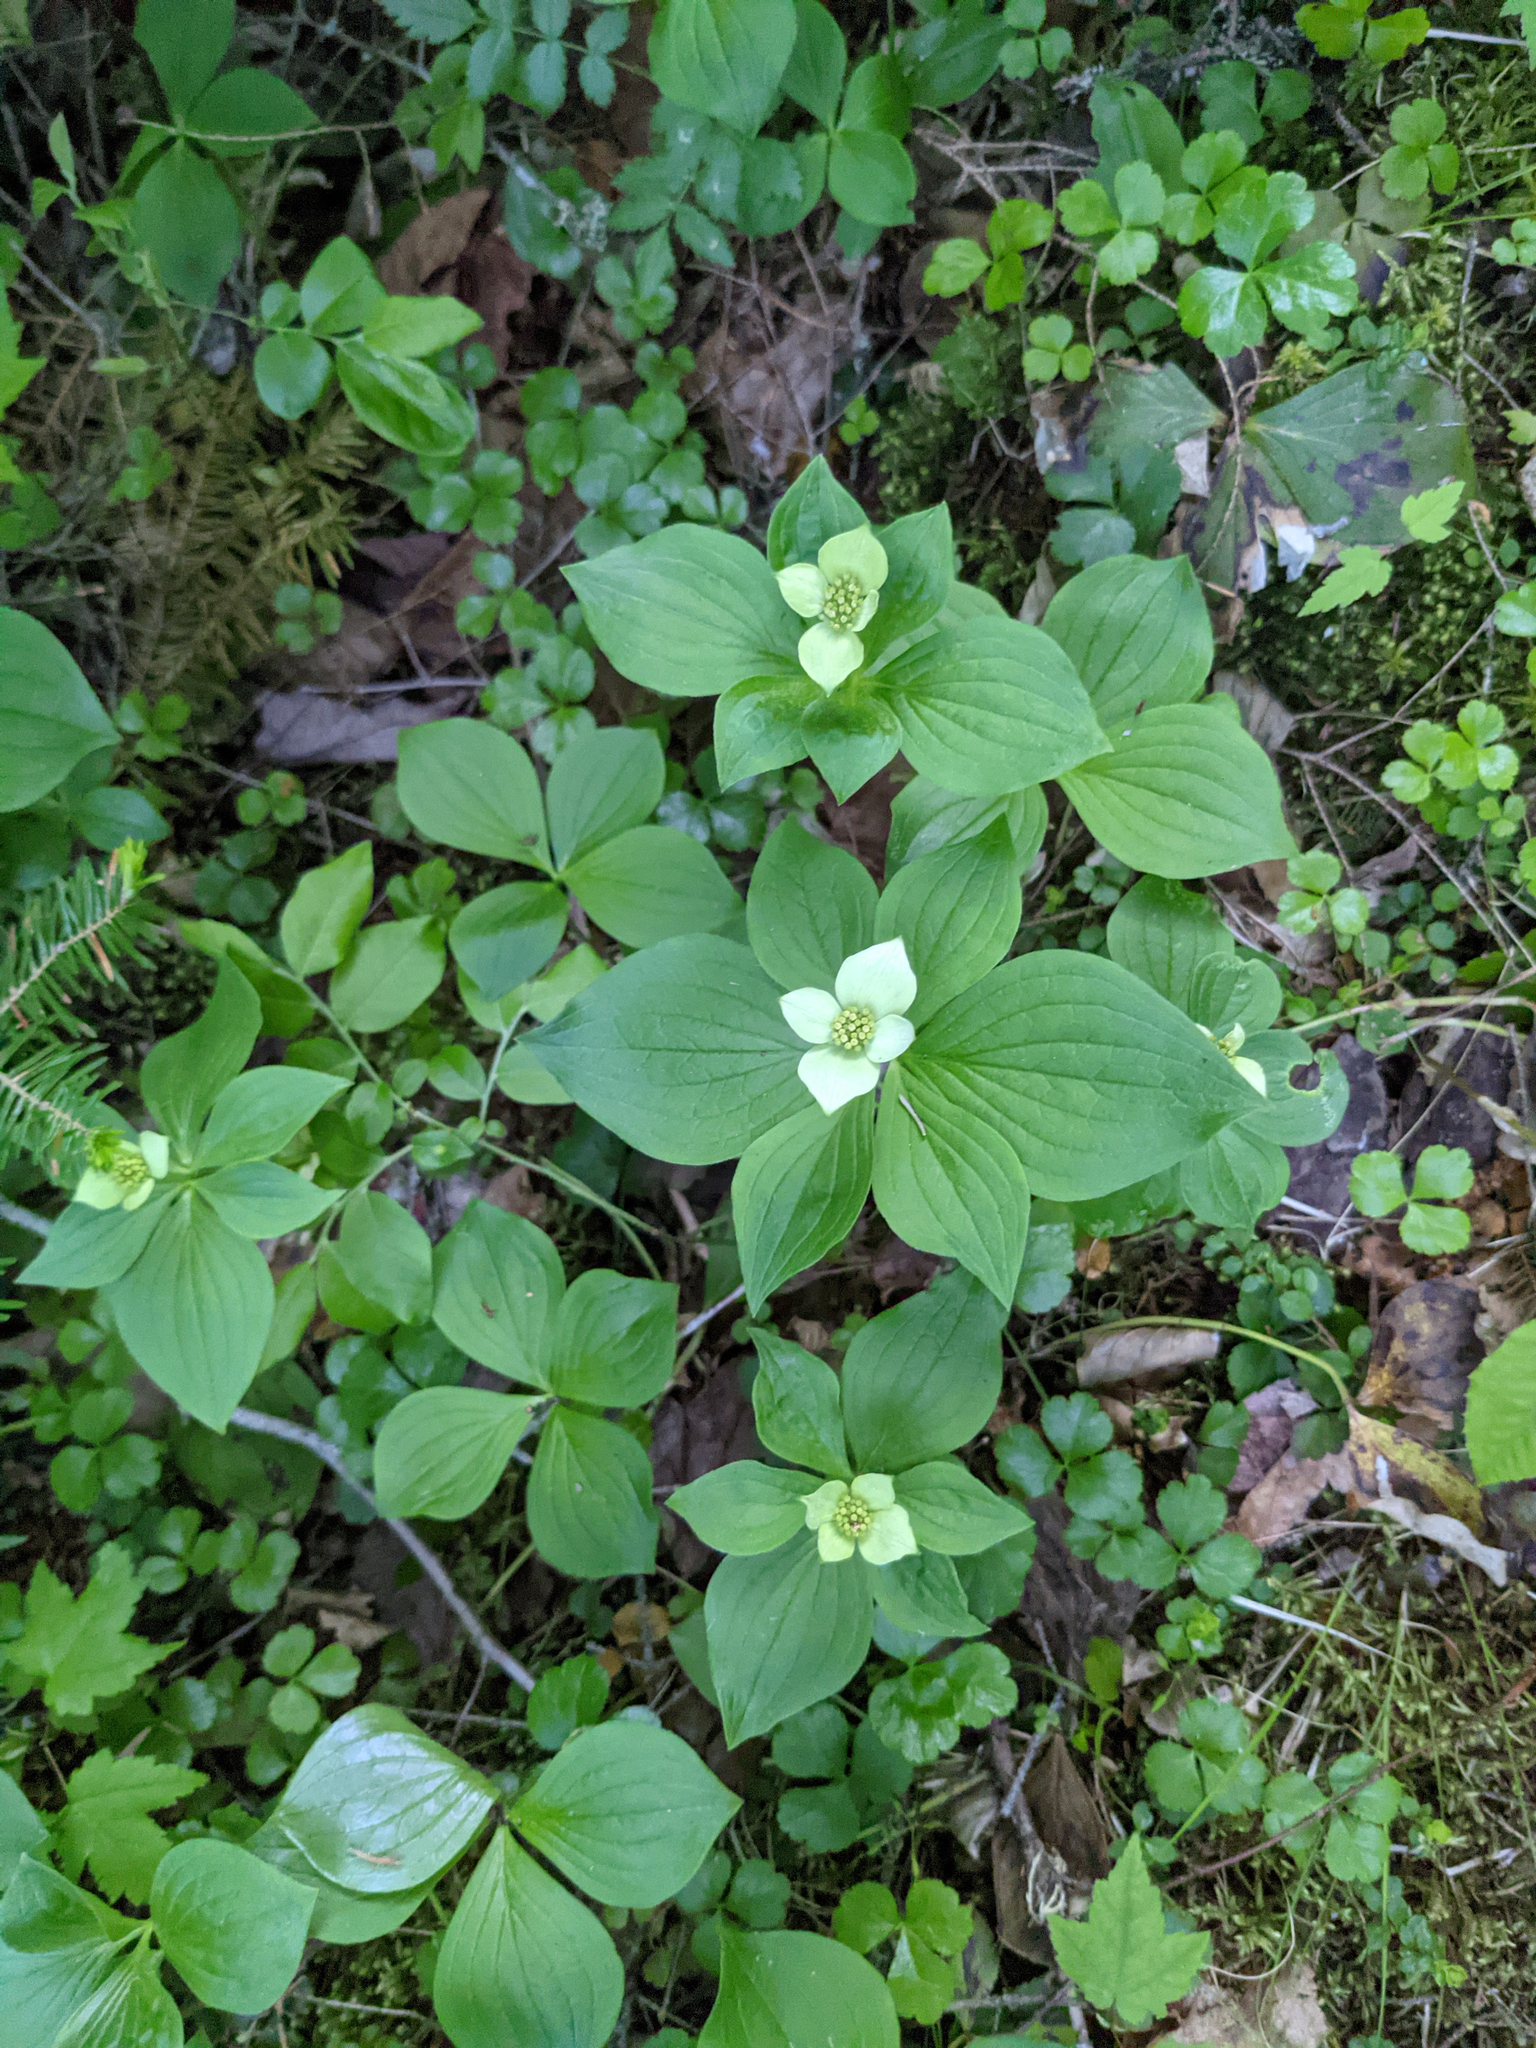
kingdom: Plantae
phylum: Tracheophyta
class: Magnoliopsida
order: Cornales
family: Cornaceae
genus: Cornus
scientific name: Cornus canadensis
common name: Creeping dogwood
